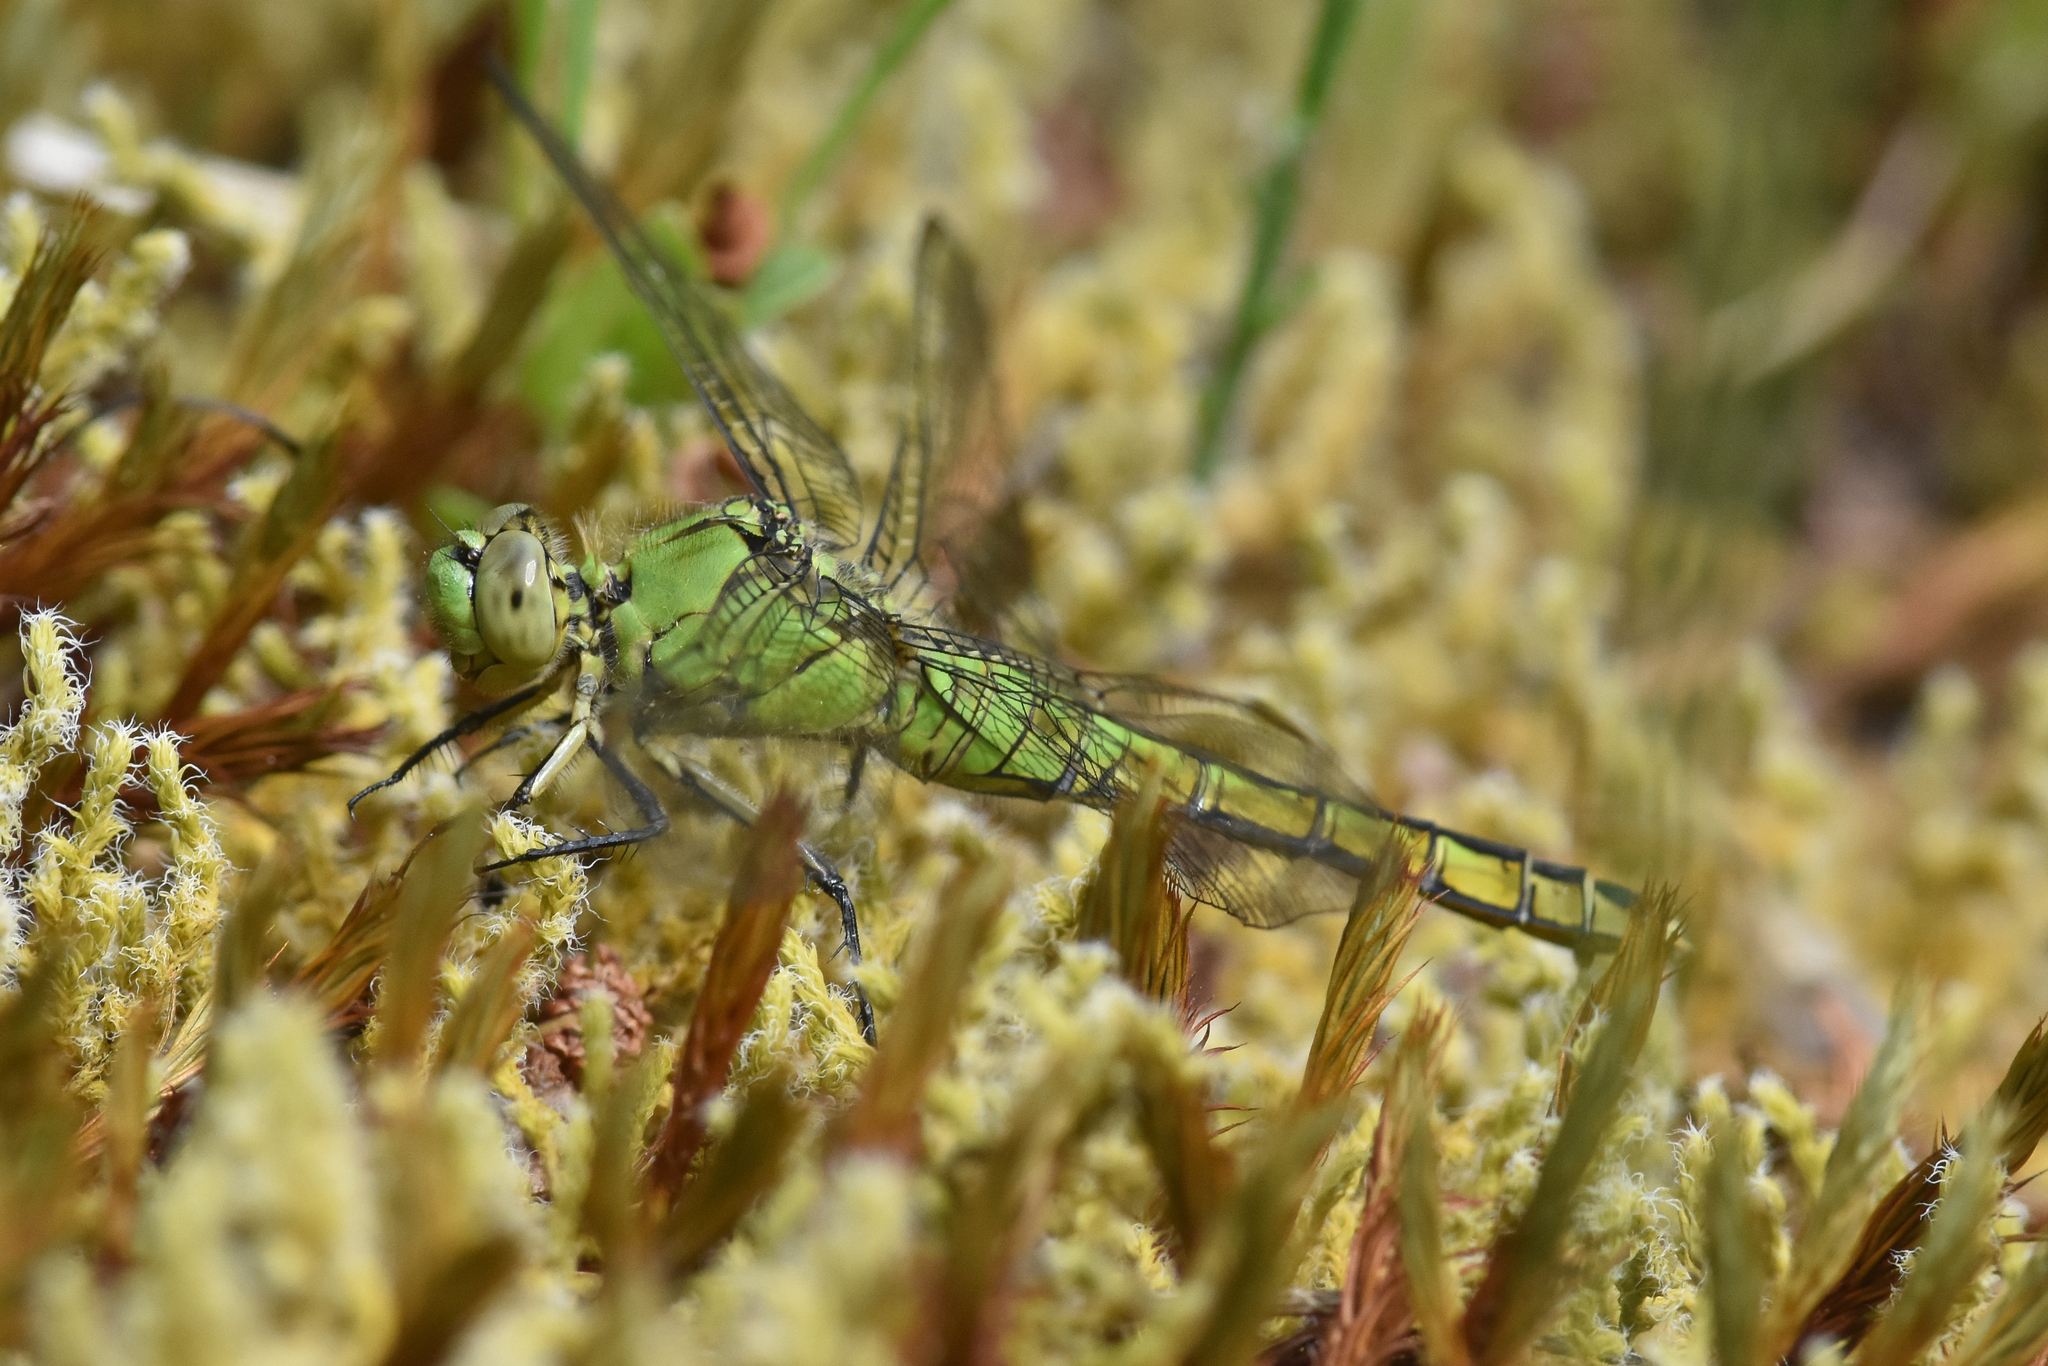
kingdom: Animalia
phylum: Arthropoda
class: Insecta
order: Odonata
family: Libellulidae
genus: Erythemis
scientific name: Erythemis collocata
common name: Western pondhawk
